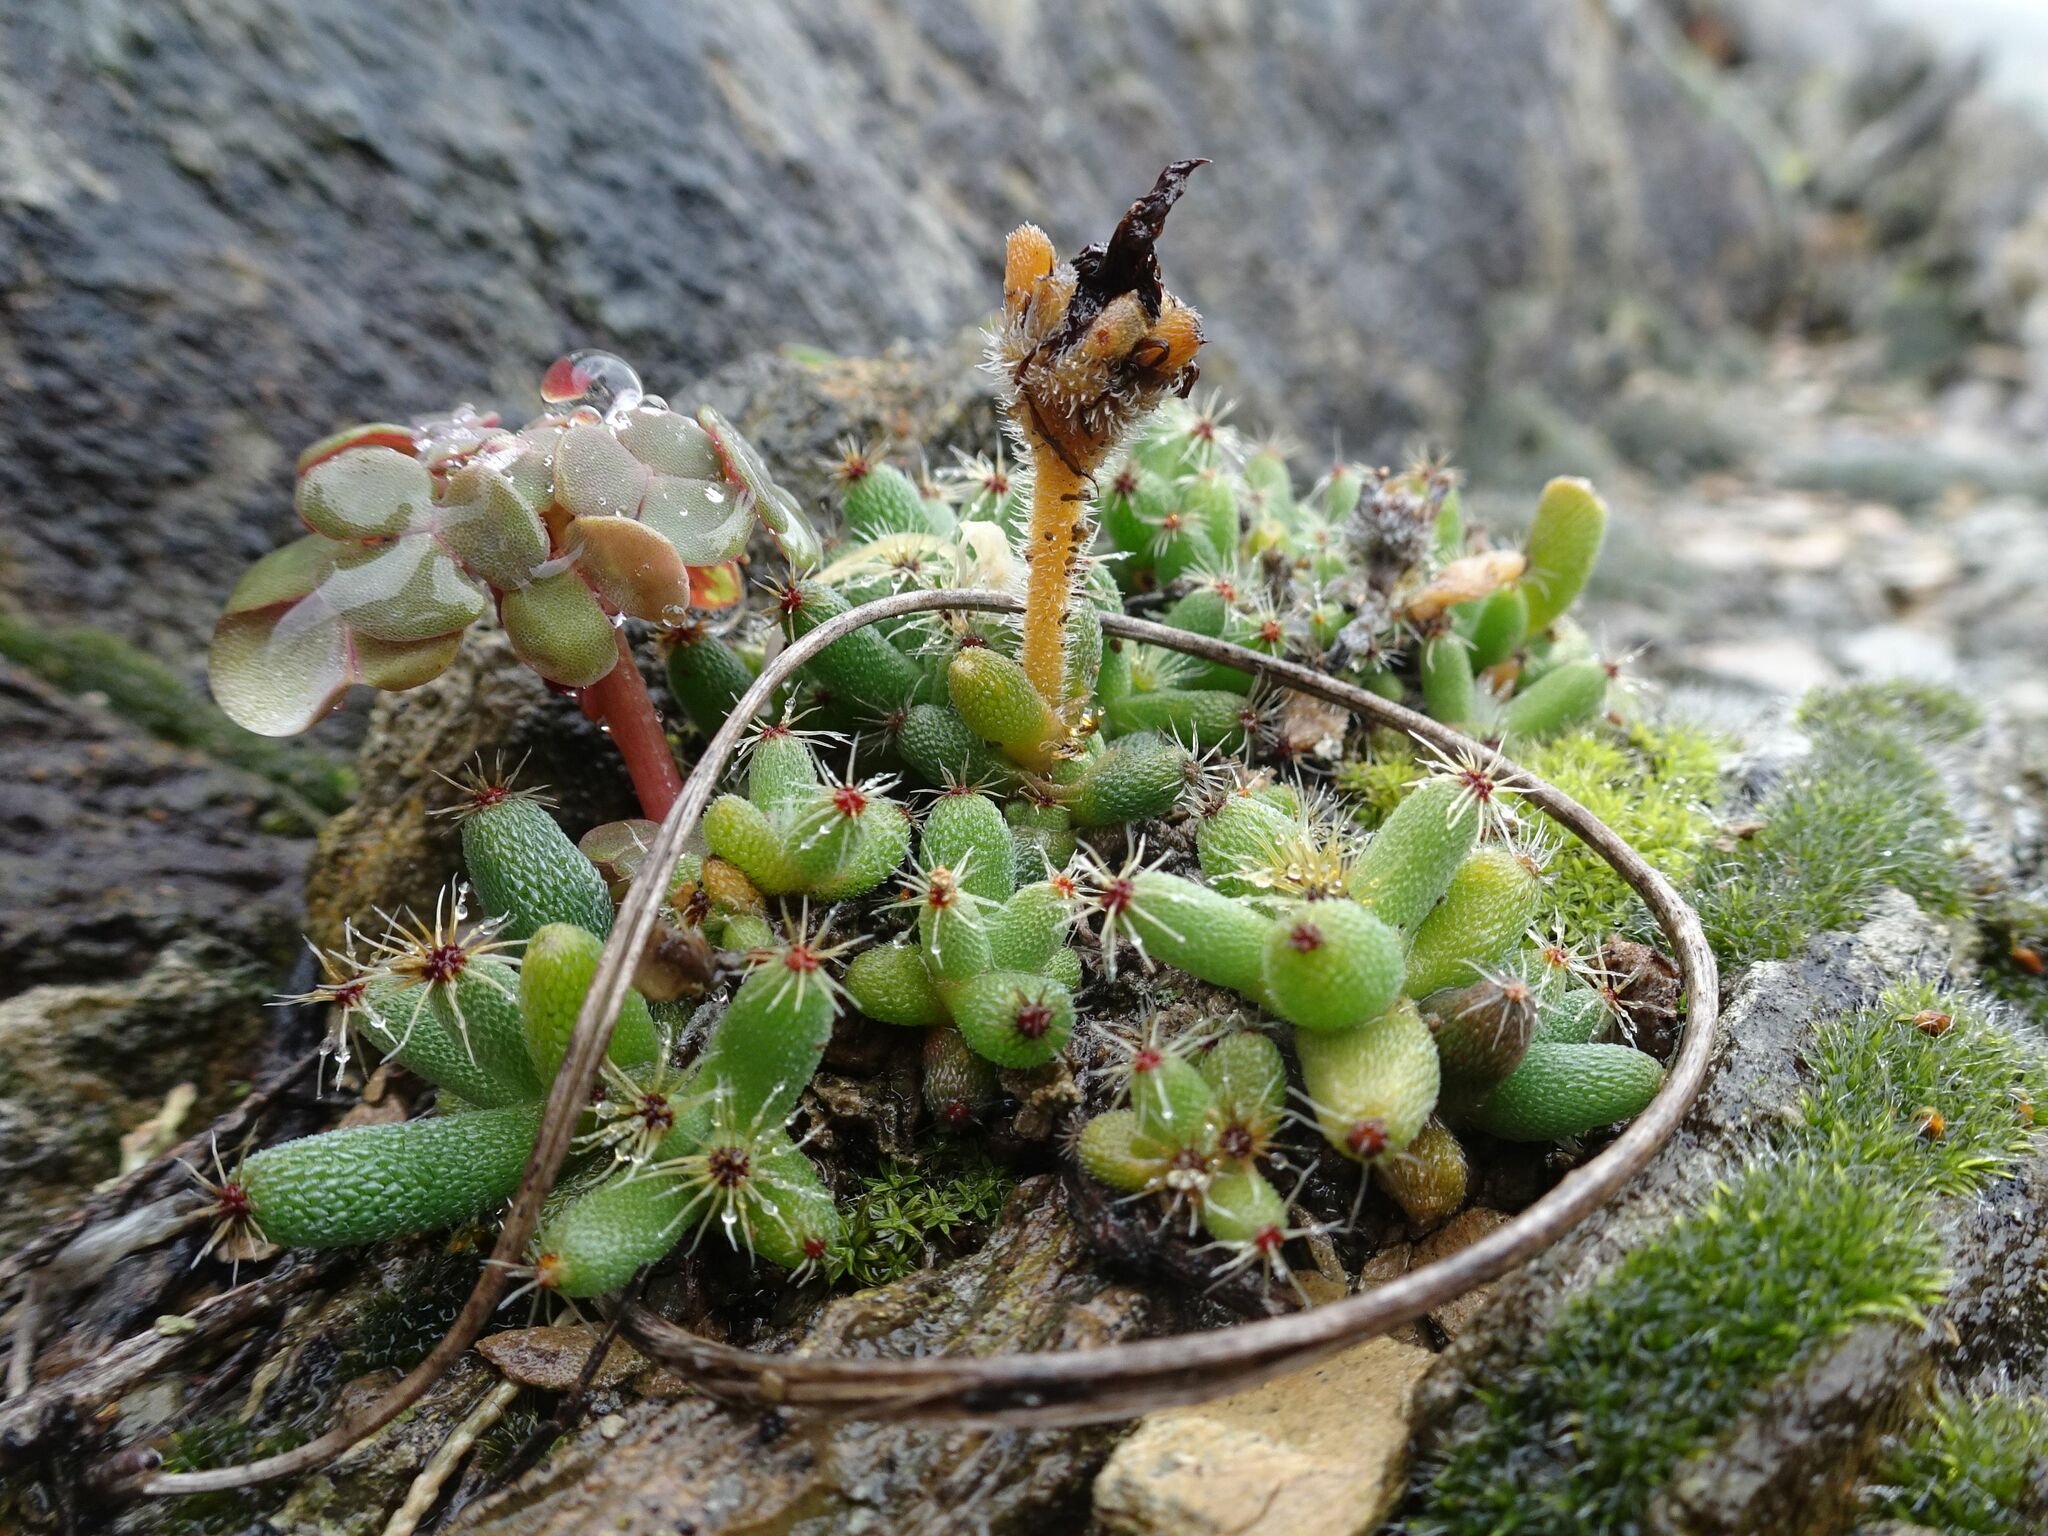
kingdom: Plantae
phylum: Tracheophyta
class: Magnoliopsida
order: Caryophyllales
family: Aizoaceae
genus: Trichodiadema
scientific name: Trichodiadema marlothii
